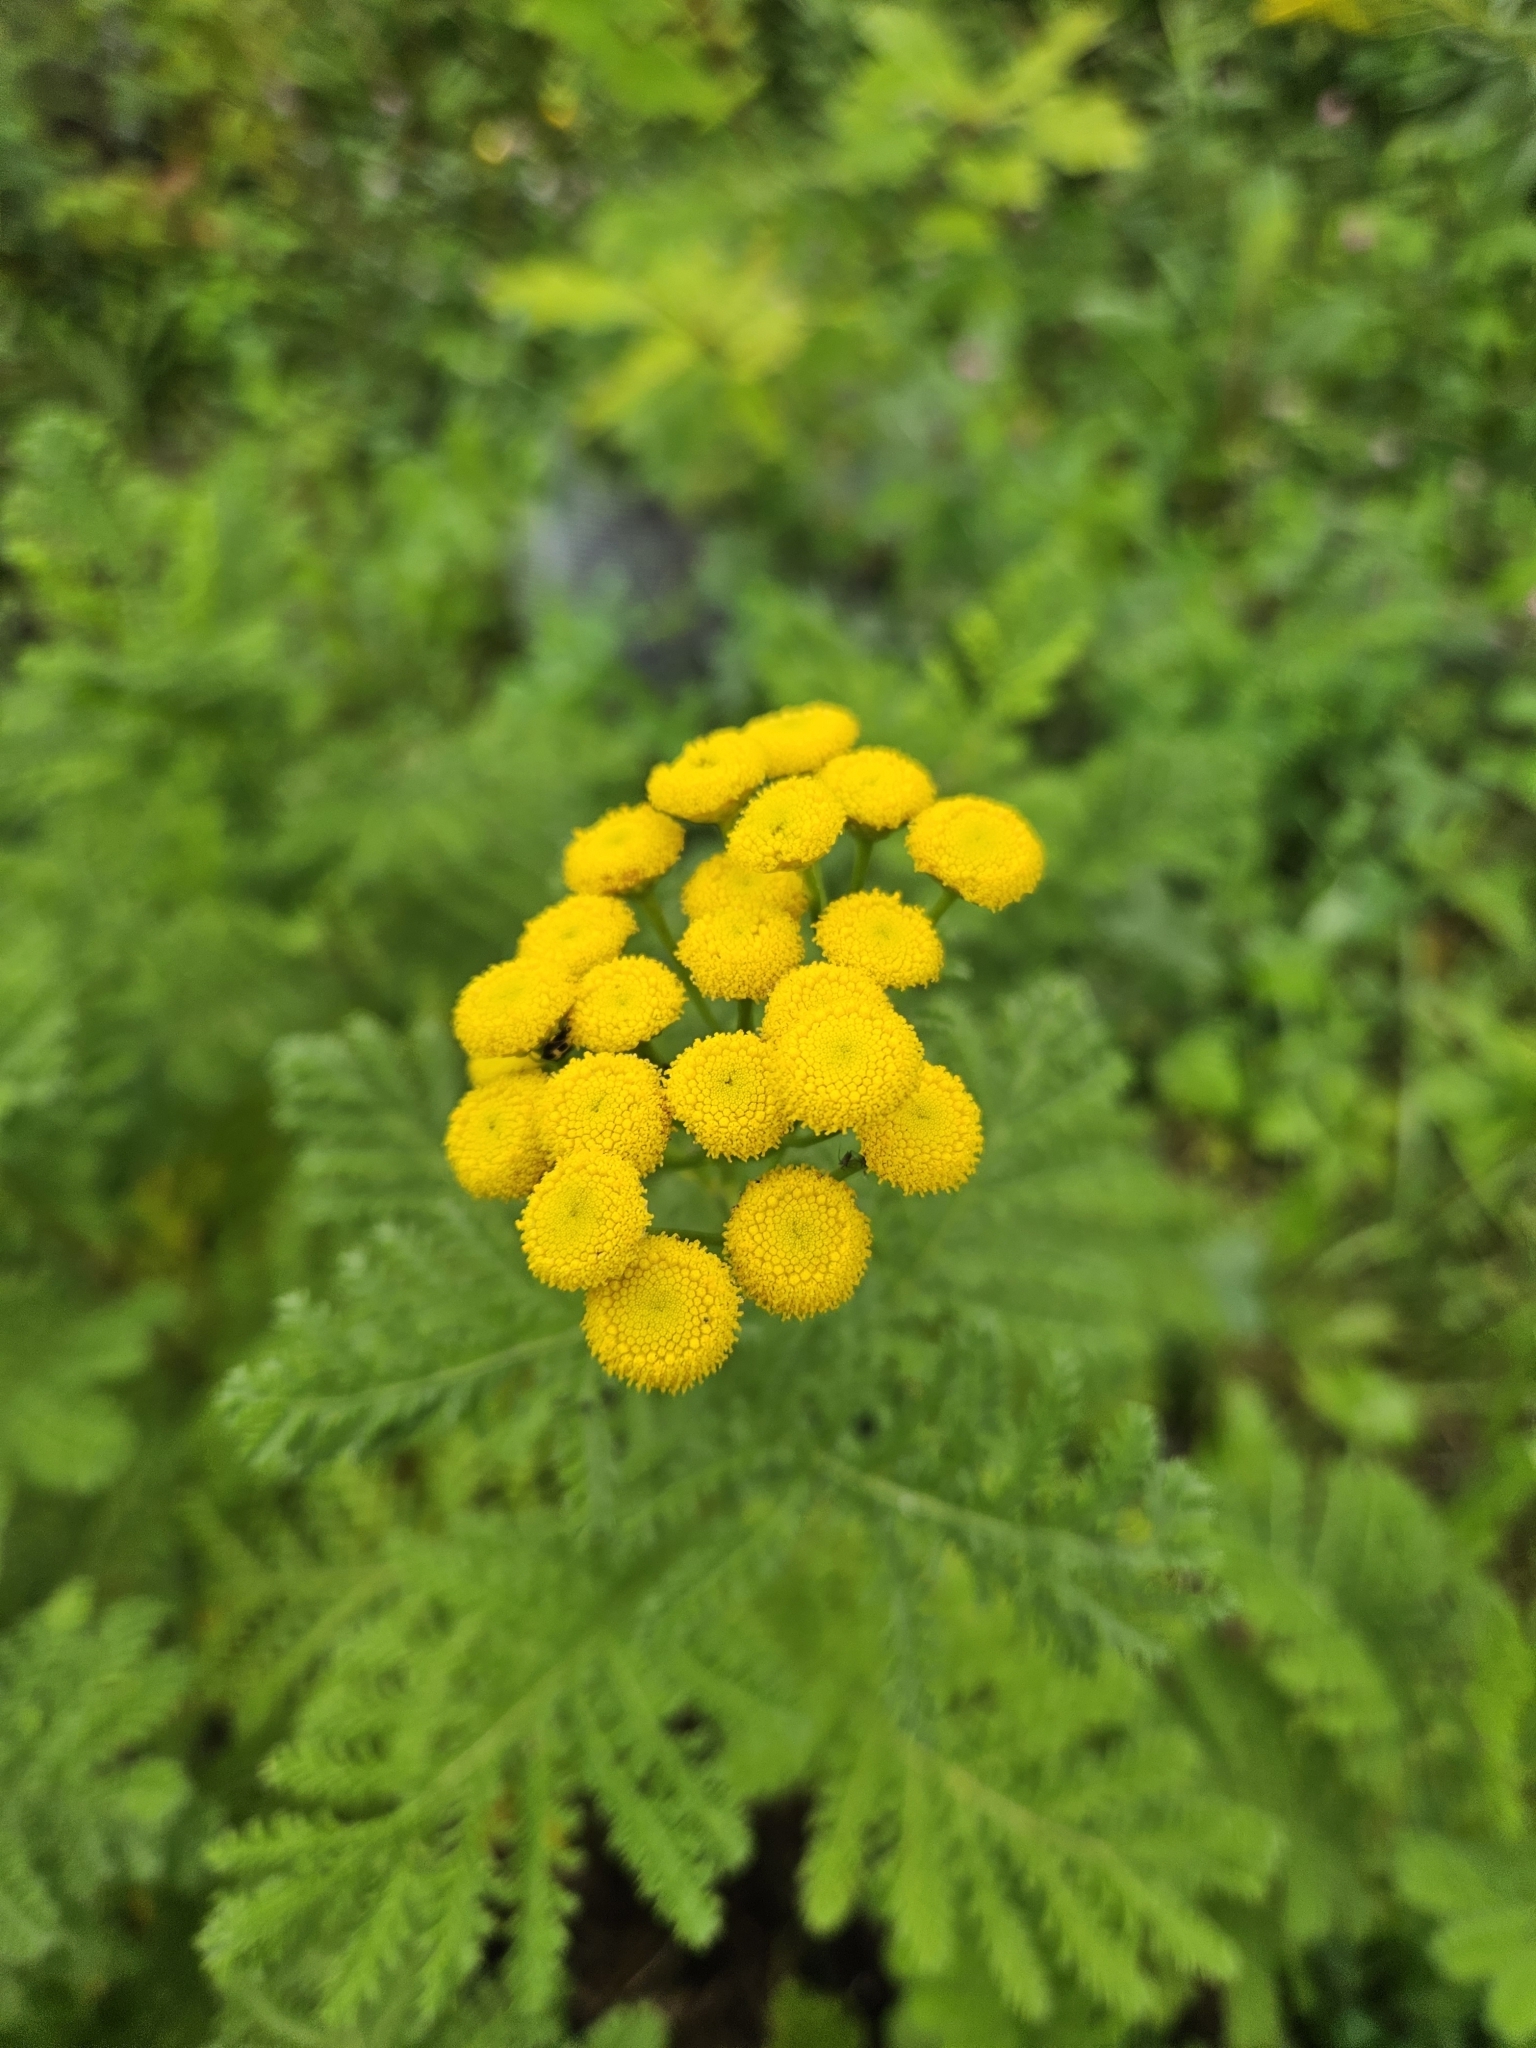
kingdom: Plantae
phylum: Tracheophyta
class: Magnoliopsida
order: Asterales
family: Asteraceae
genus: Tanacetum
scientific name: Tanacetum vulgare
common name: Common tansy
